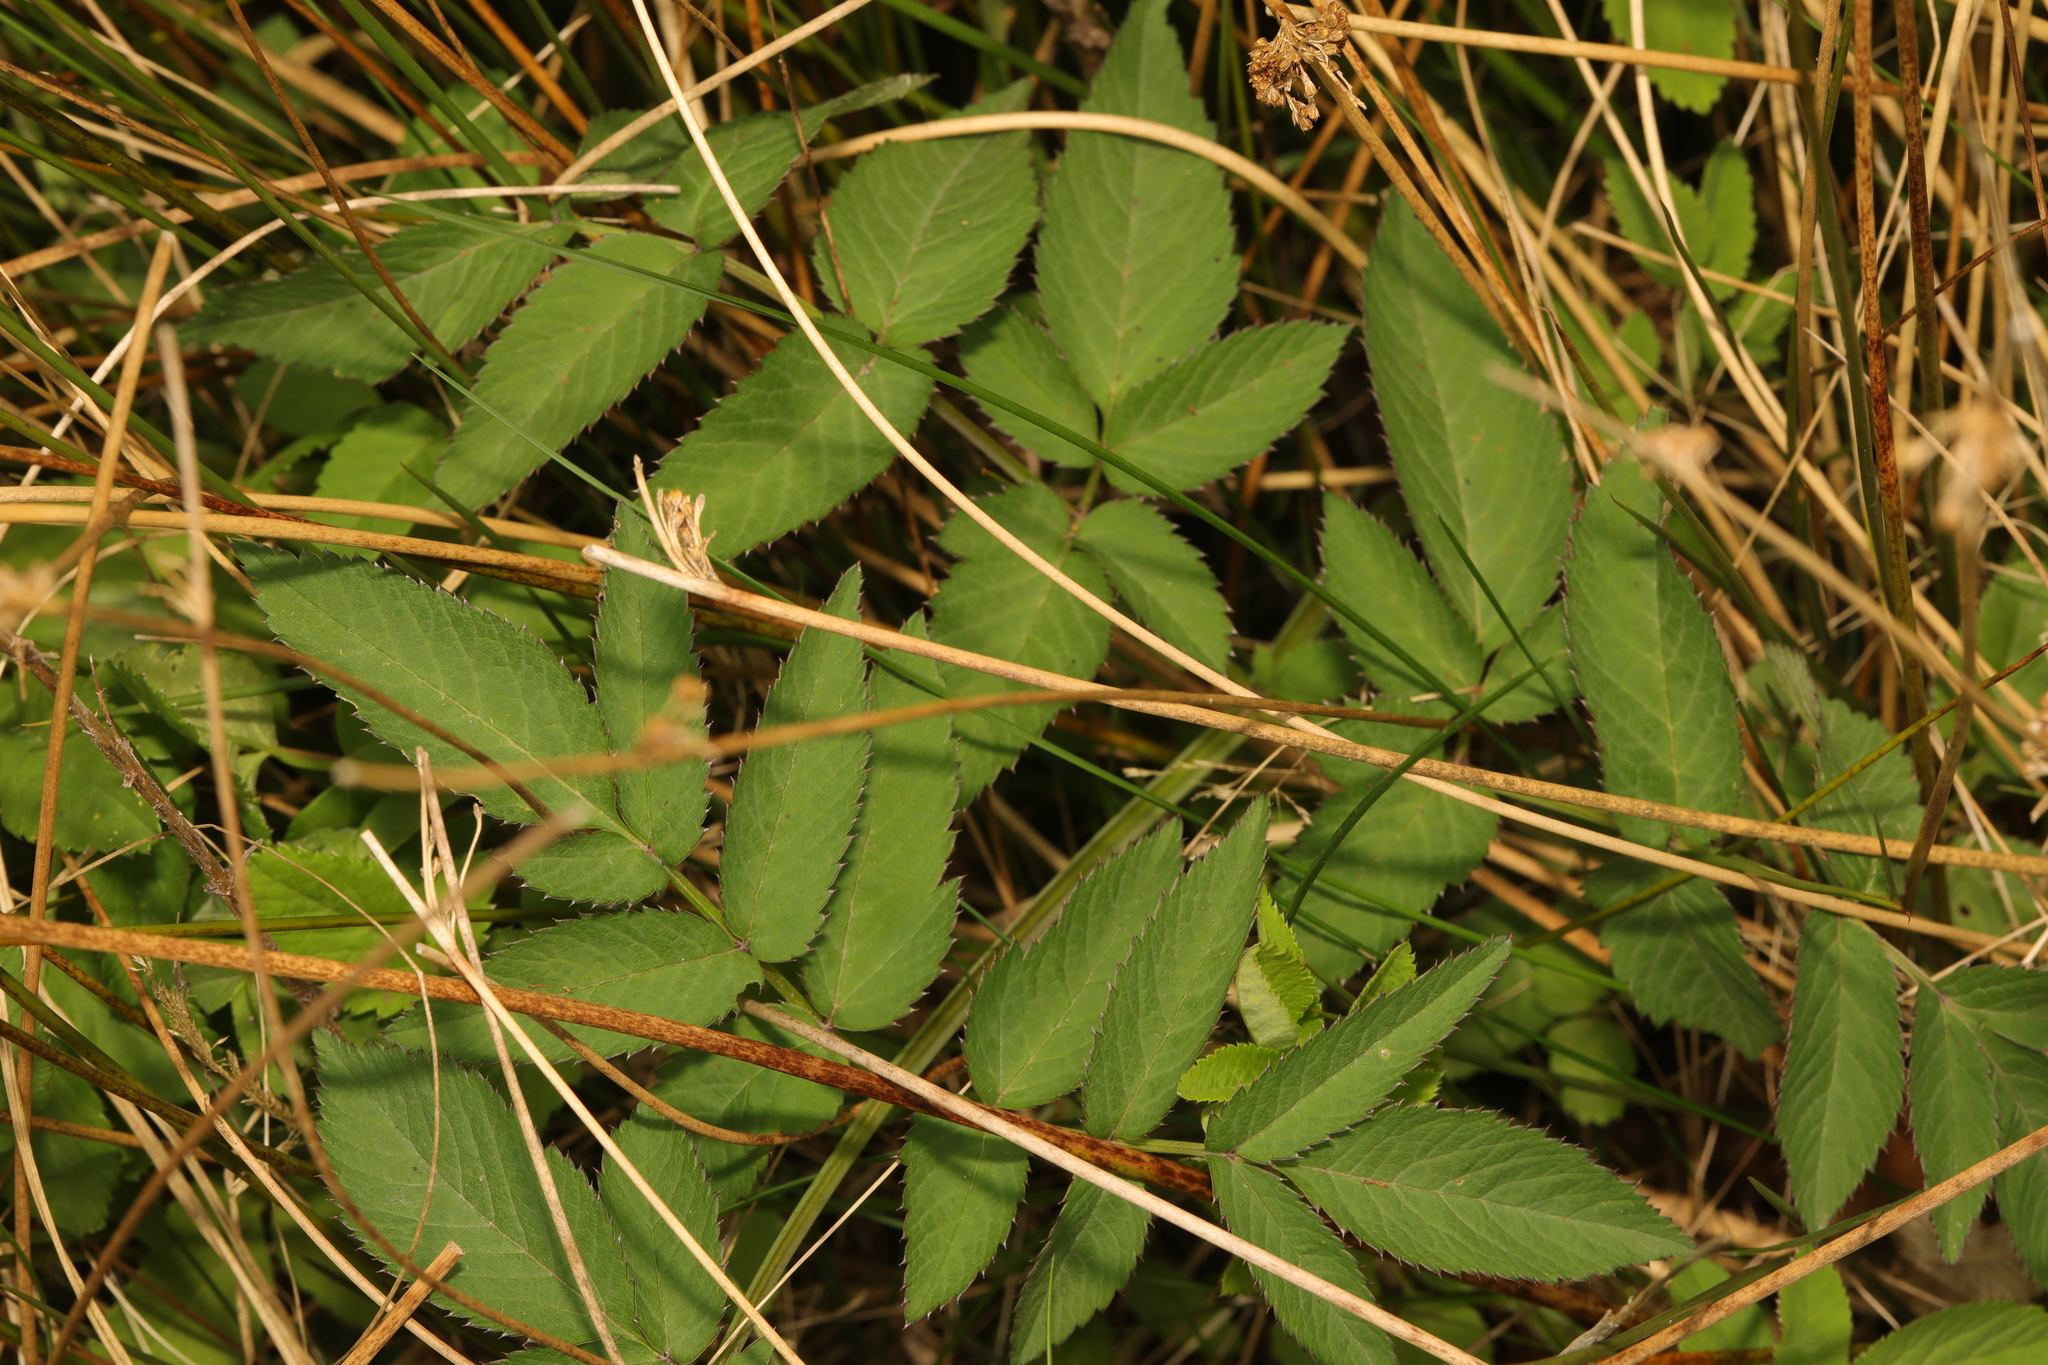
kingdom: Plantae
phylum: Tracheophyta
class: Magnoliopsida
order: Apiales
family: Apiaceae
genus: Angelica
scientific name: Angelica sylvestris
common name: Wild angelica
